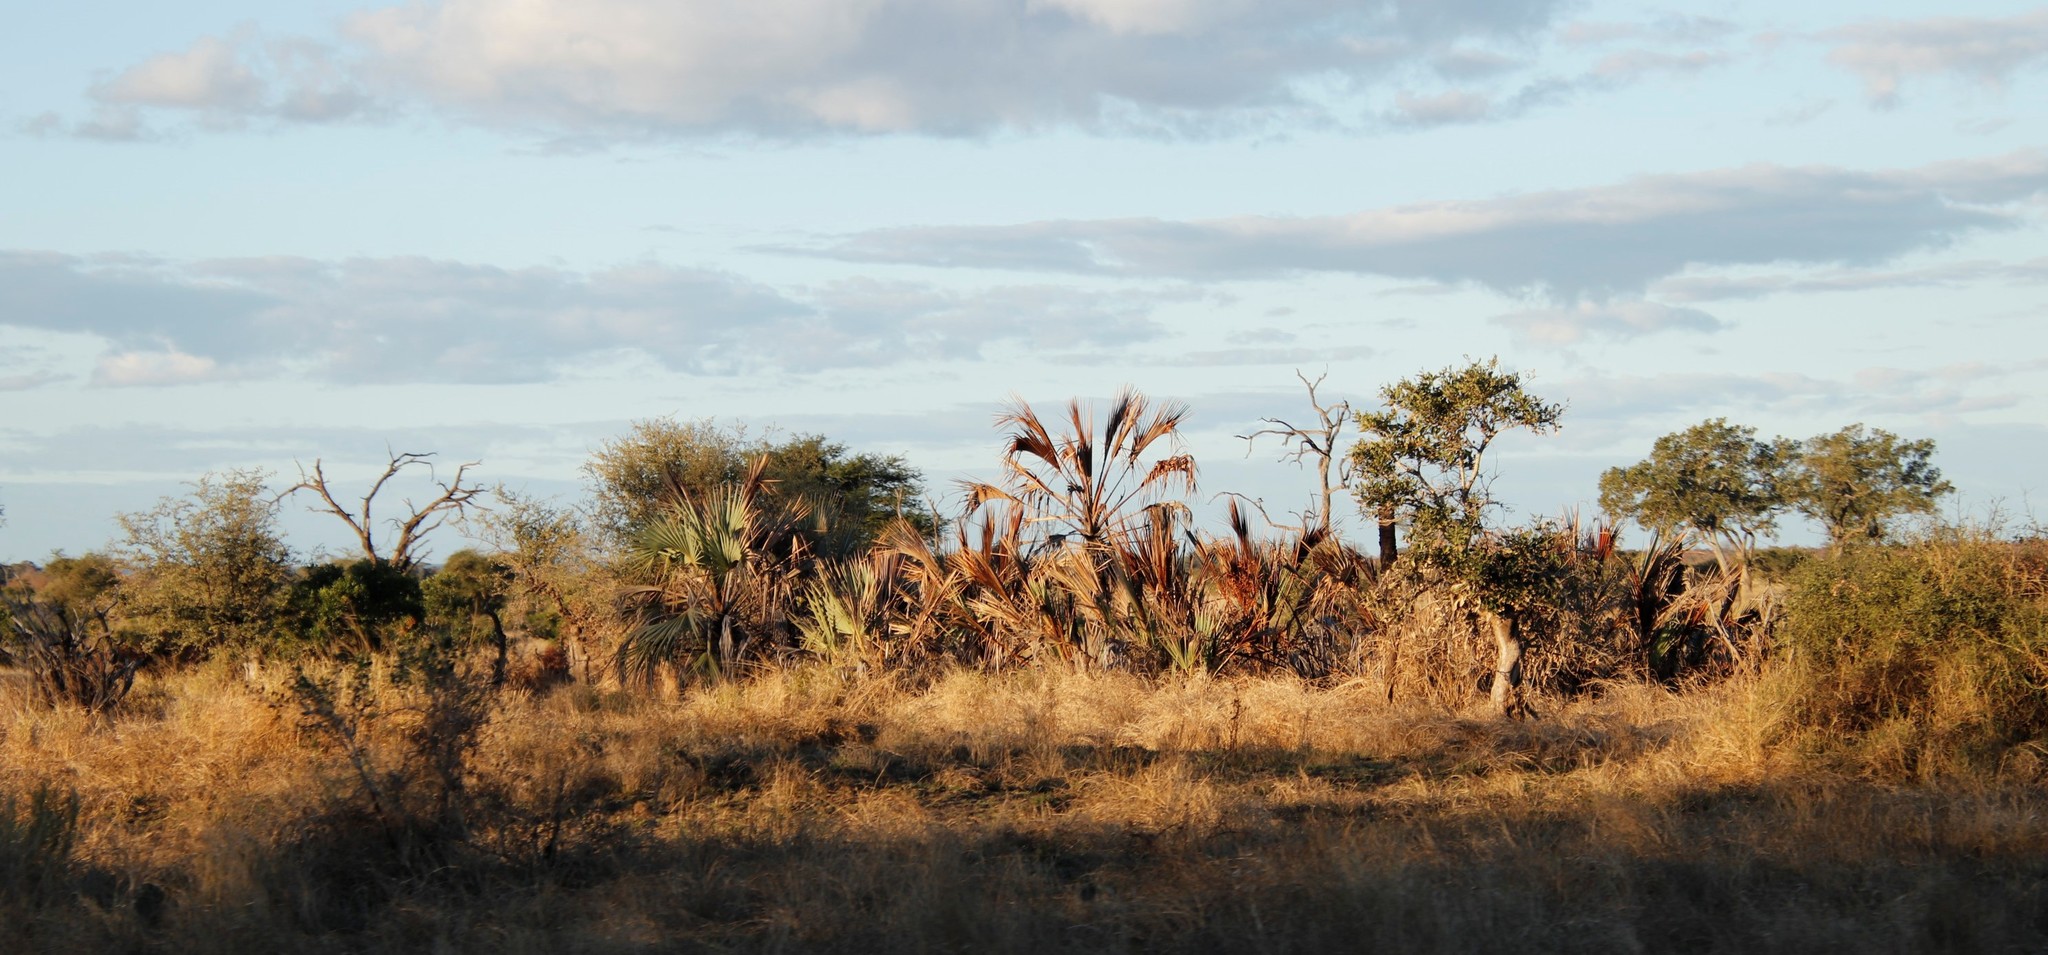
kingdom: Plantae
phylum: Tracheophyta
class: Liliopsida
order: Arecales
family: Arecaceae
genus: Hyphaene
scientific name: Hyphaene coriacea
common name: Ilala palm
